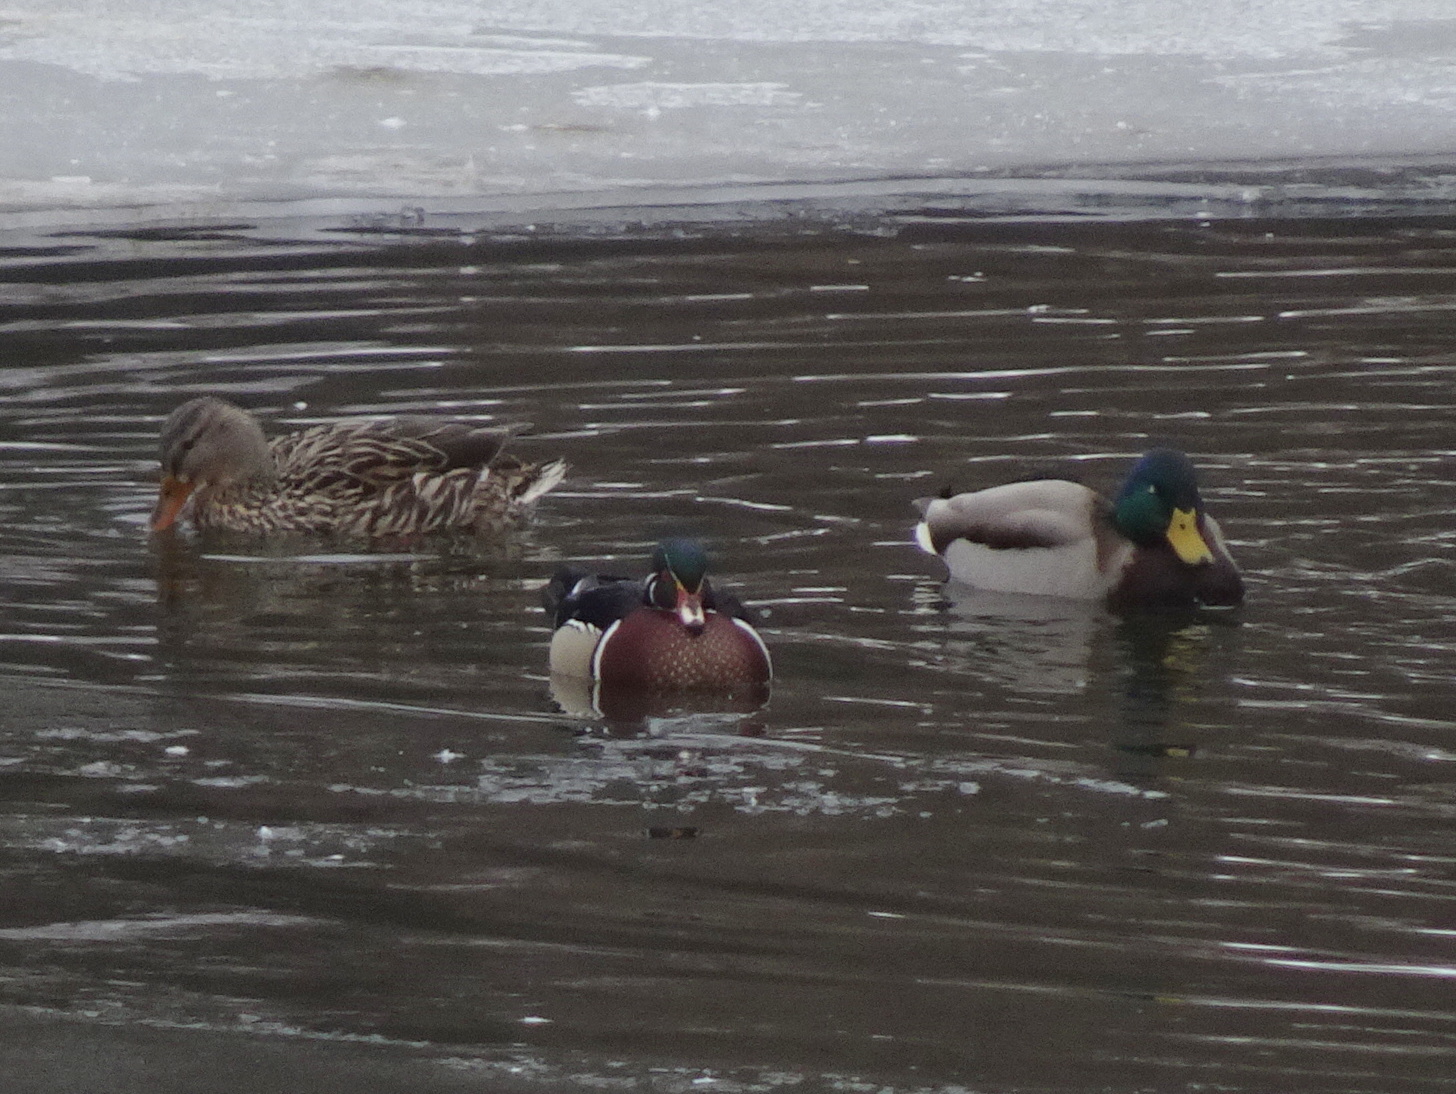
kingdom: Animalia
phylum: Chordata
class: Aves
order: Anseriformes
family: Anatidae
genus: Aix
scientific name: Aix sponsa
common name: Wood duck
